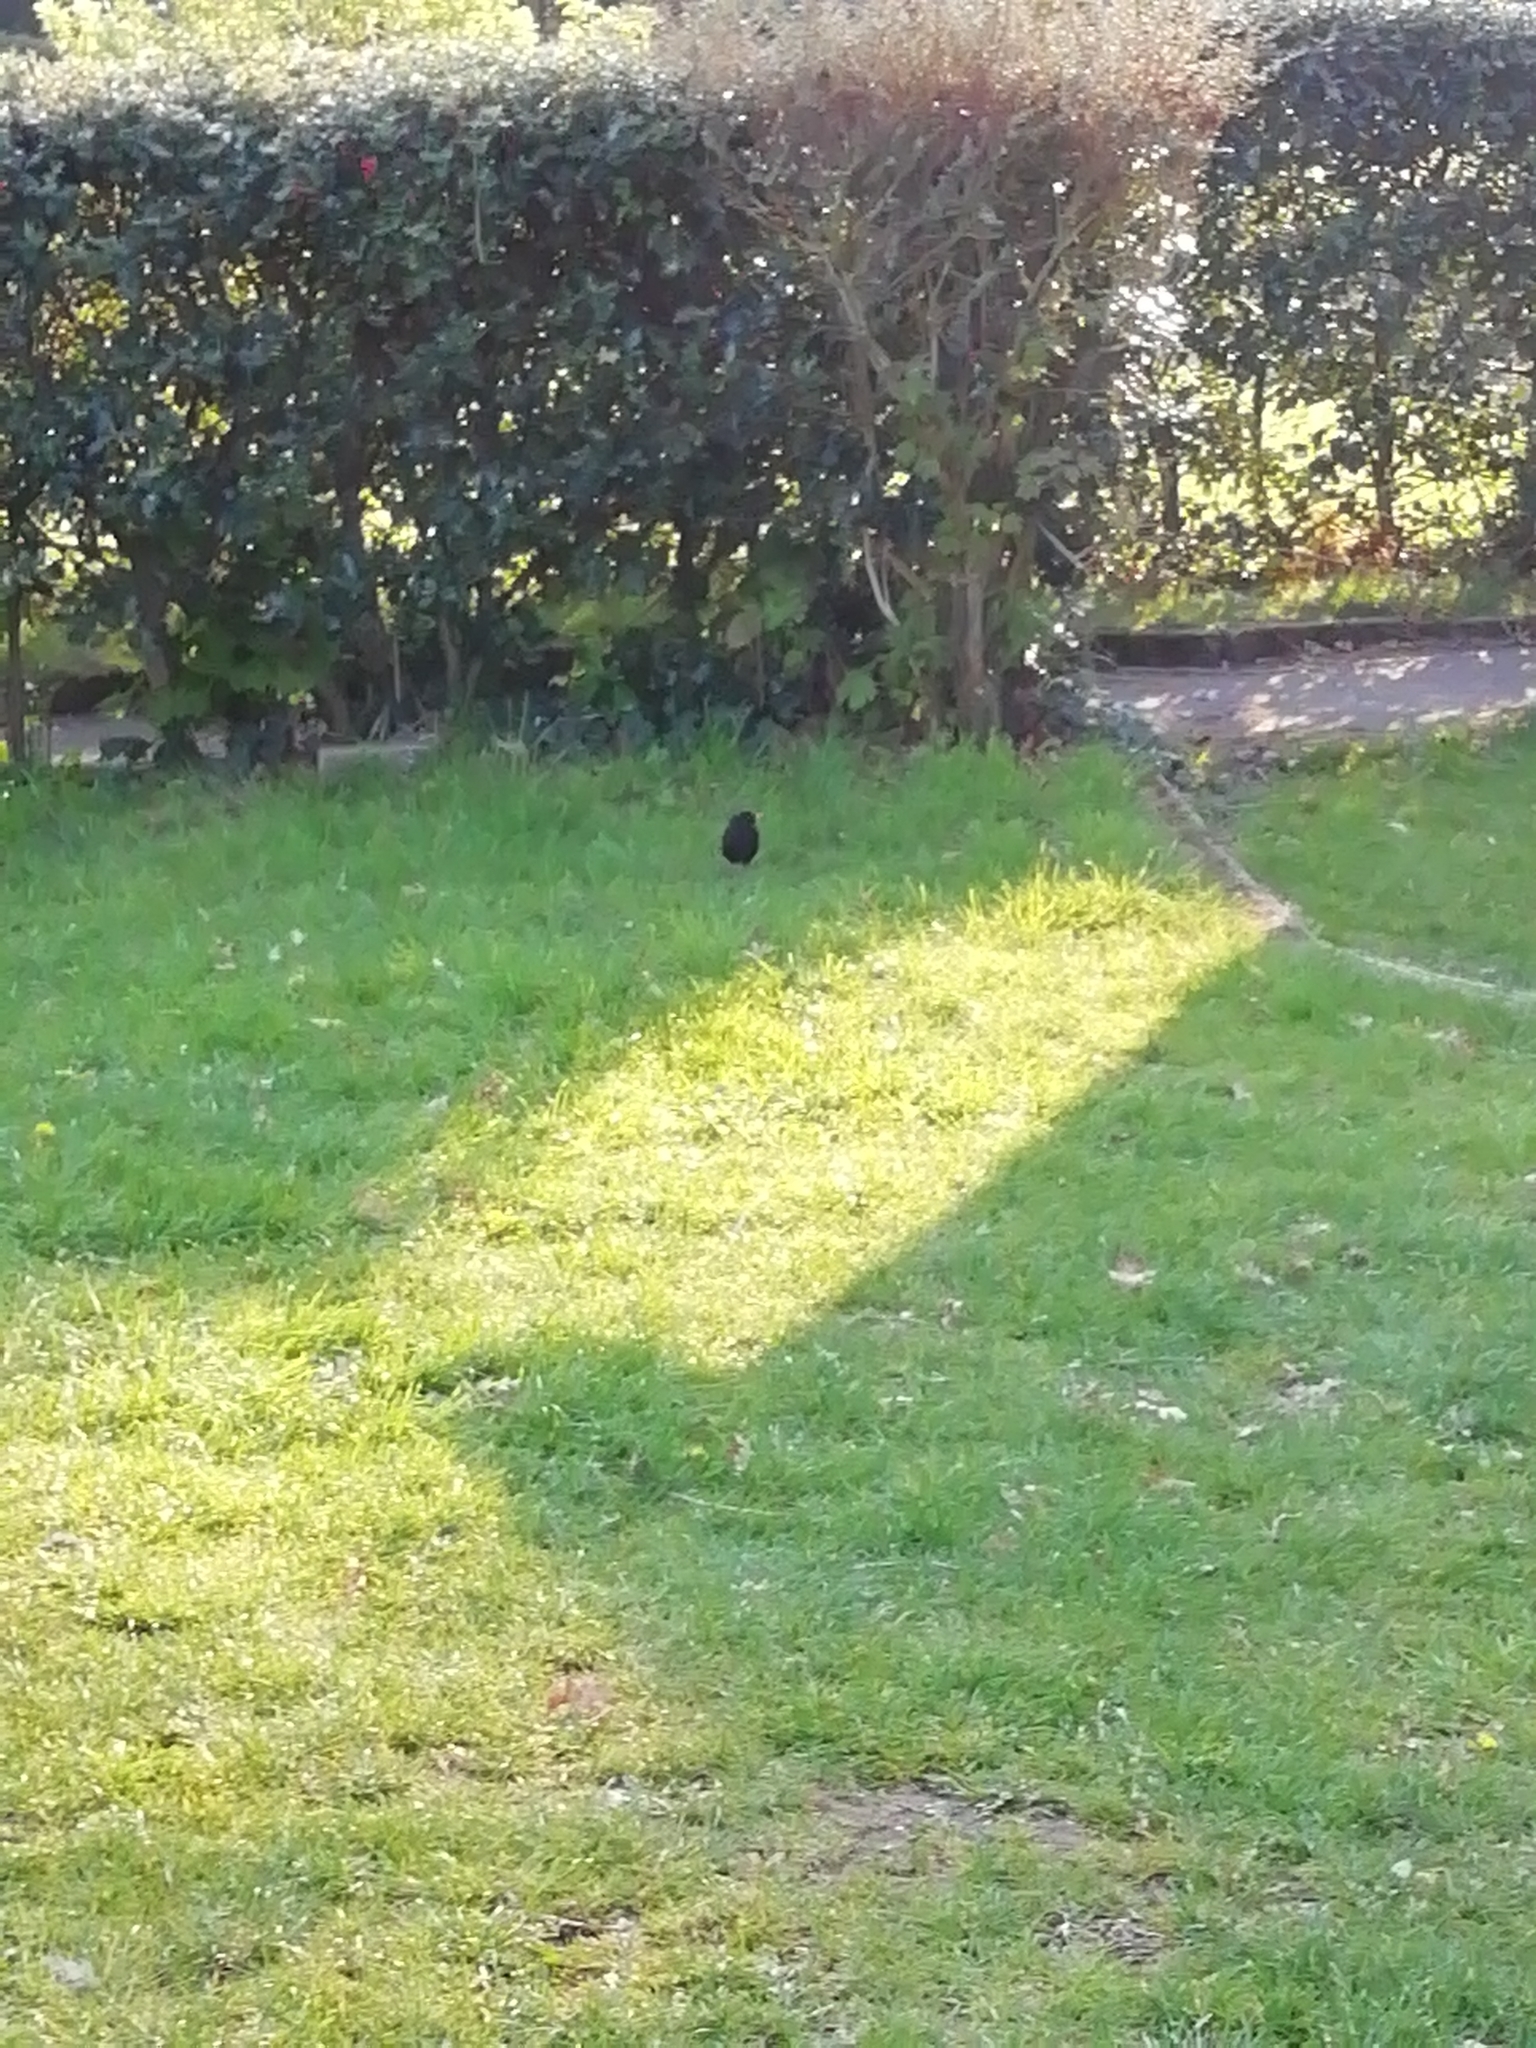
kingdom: Animalia
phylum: Chordata
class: Aves
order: Passeriformes
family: Turdidae
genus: Turdus
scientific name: Turdus merula
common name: Common blackbird
